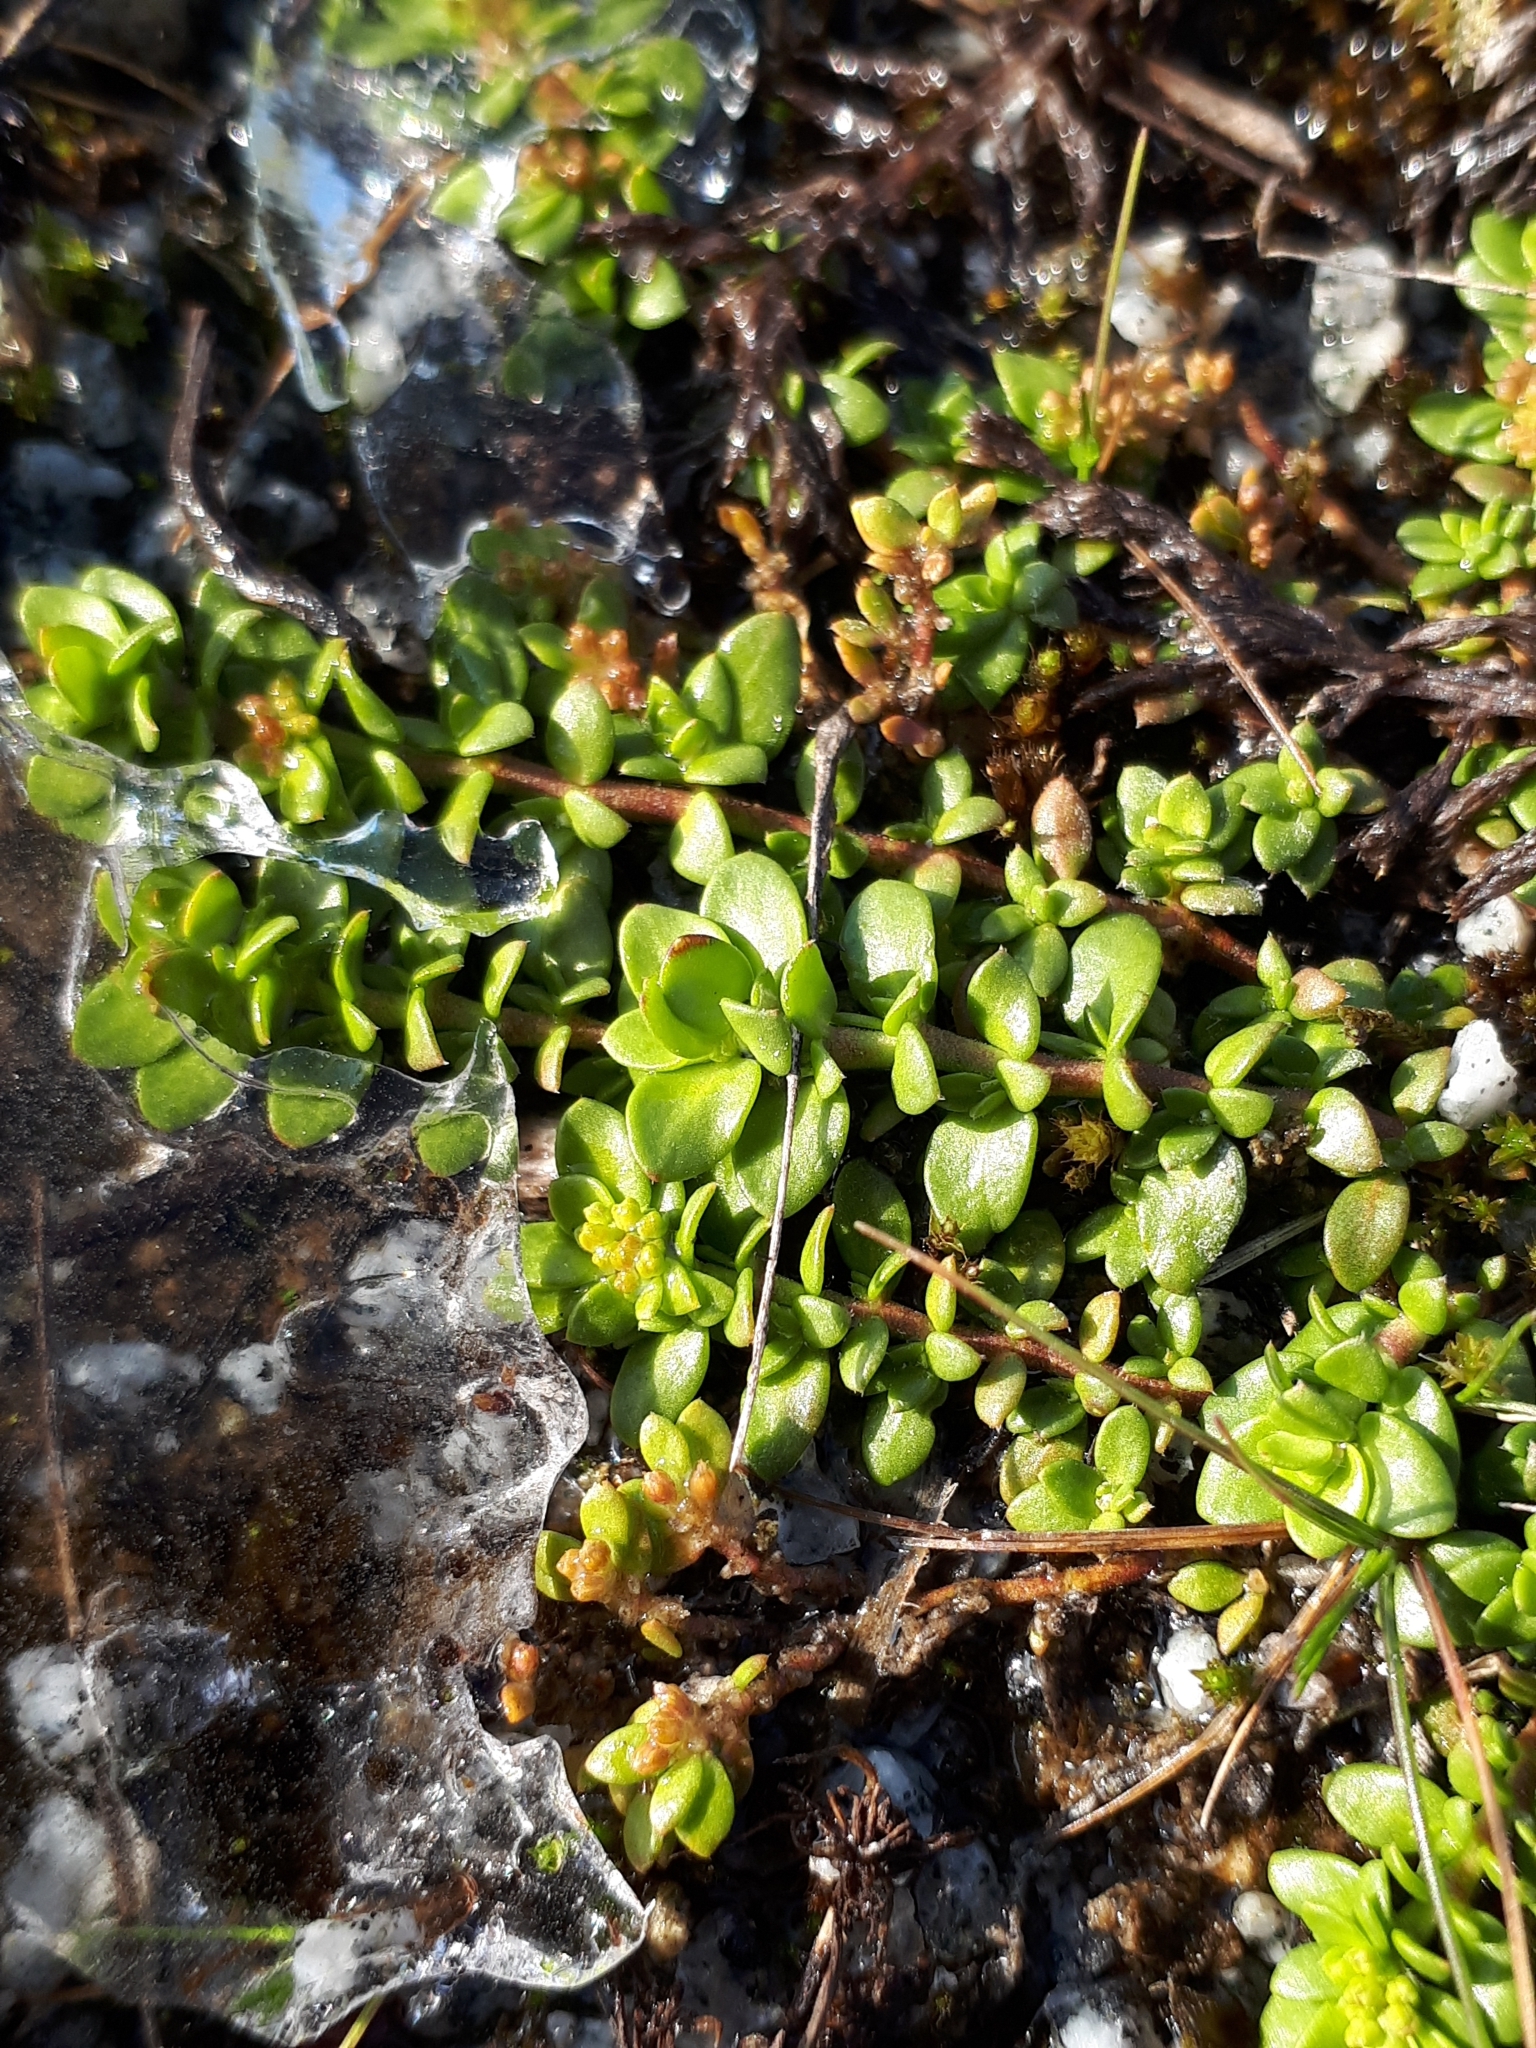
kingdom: Plantae
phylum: Tracheophyta
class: Magnoliopsida
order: Caryophyllales
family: Caryophyllaceae
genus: Herniaria
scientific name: Herniaria glabra
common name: Smooth rupturewort
